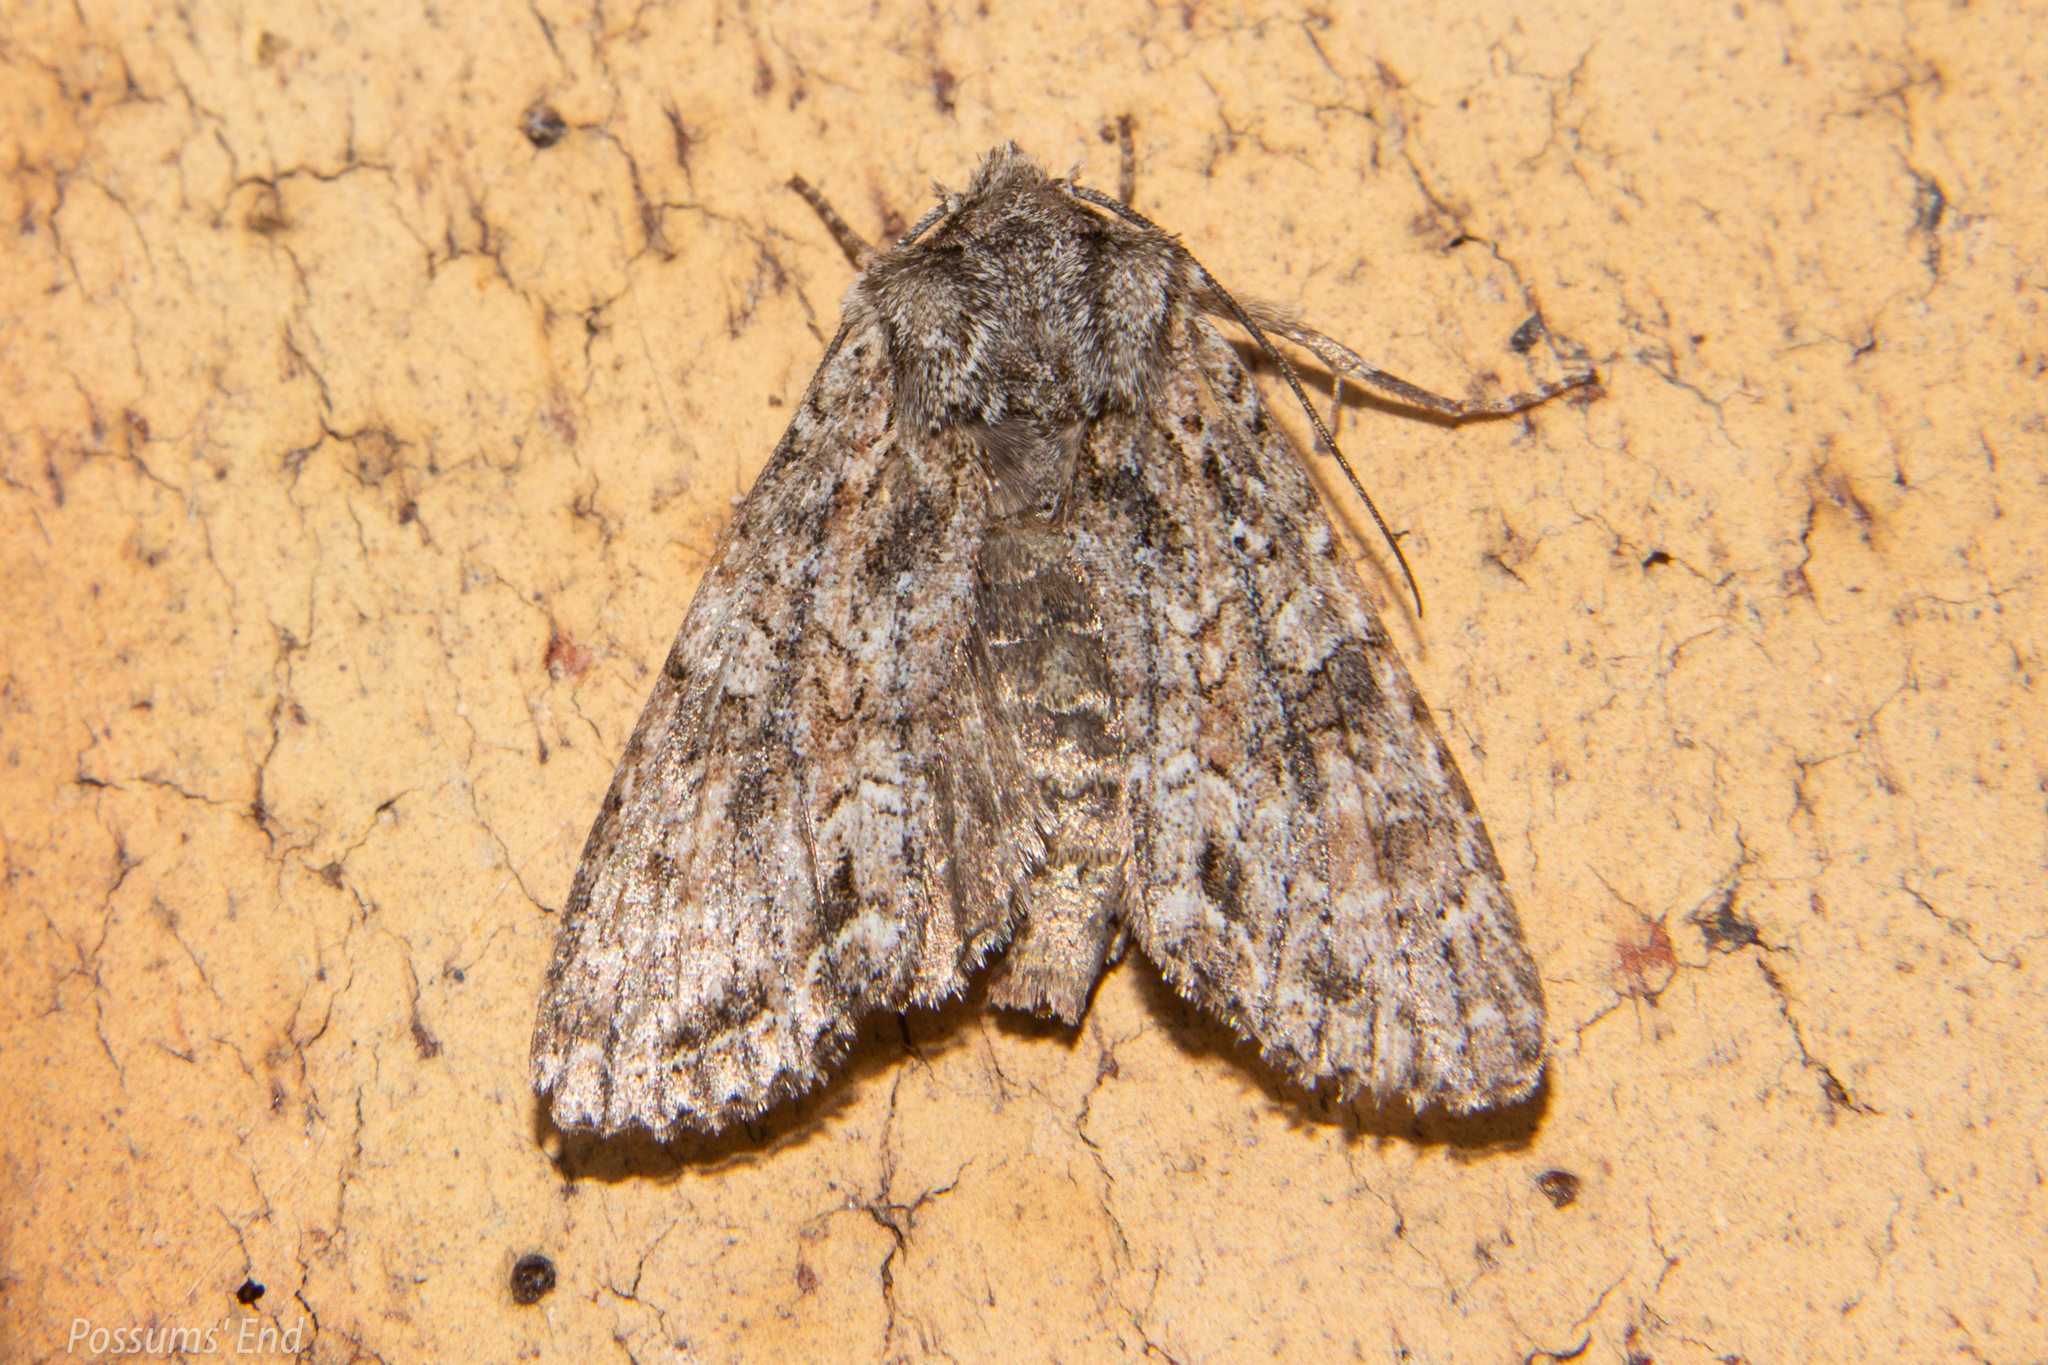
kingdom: Animalia
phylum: Arthropoda
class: Insecta
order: Lepidoptera
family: Noctuidae
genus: Ichneutica
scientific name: Ichneutica mutans
